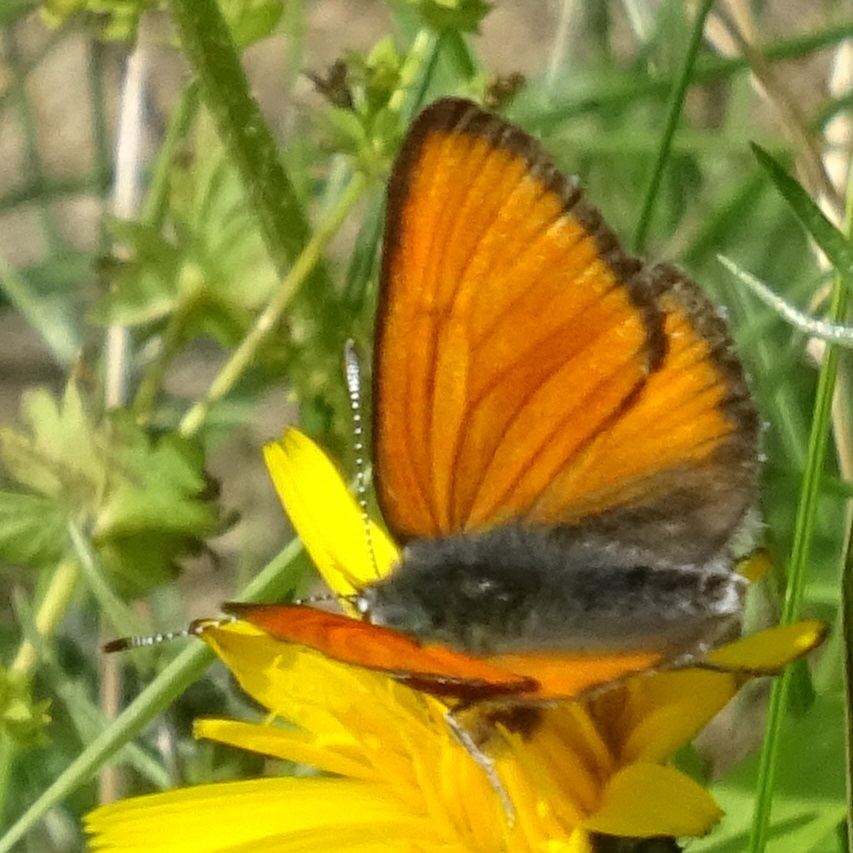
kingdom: Animalia
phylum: Arthropoda
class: Insecta
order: Lepidoptera
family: Lycaenidae
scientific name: Lycaenidae
